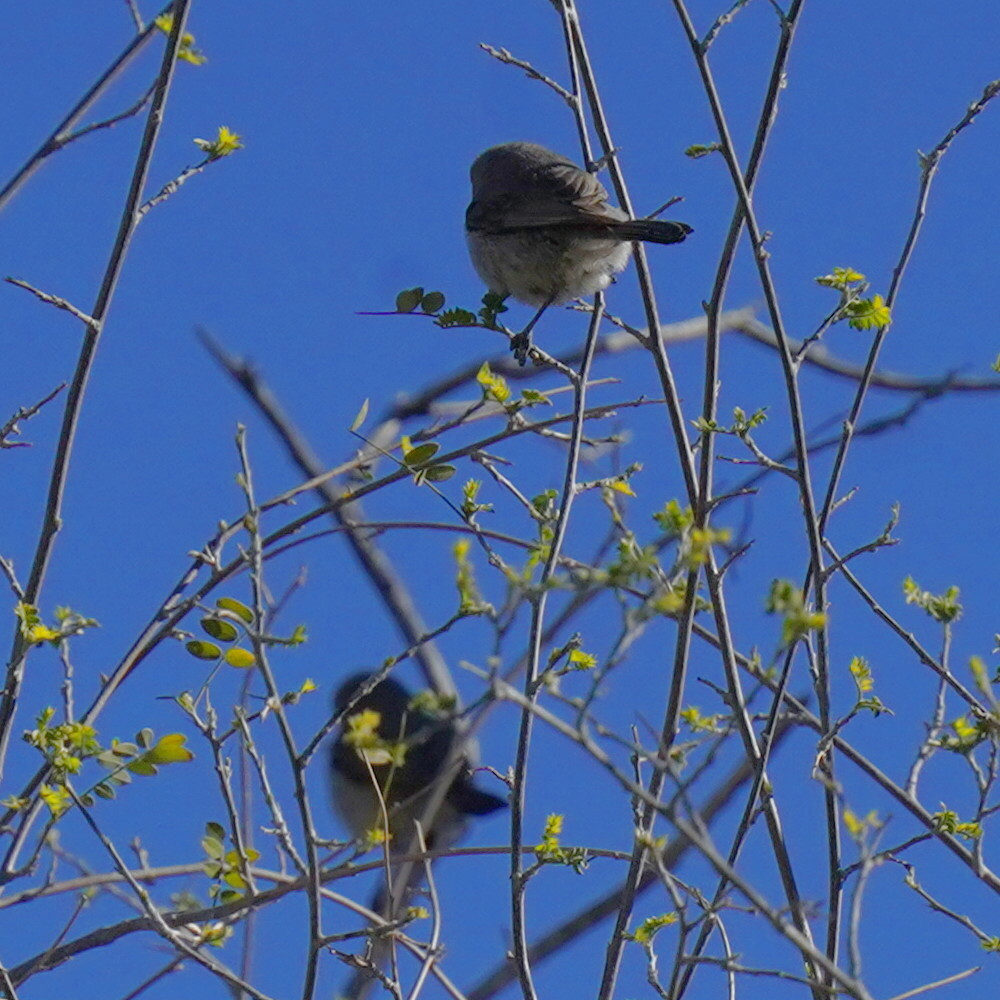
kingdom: Animalia
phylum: Chordata
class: Aves
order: Passeriformes
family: Remizidae
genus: Auriparus
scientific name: Auriparus flaviceps
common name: Verdin
